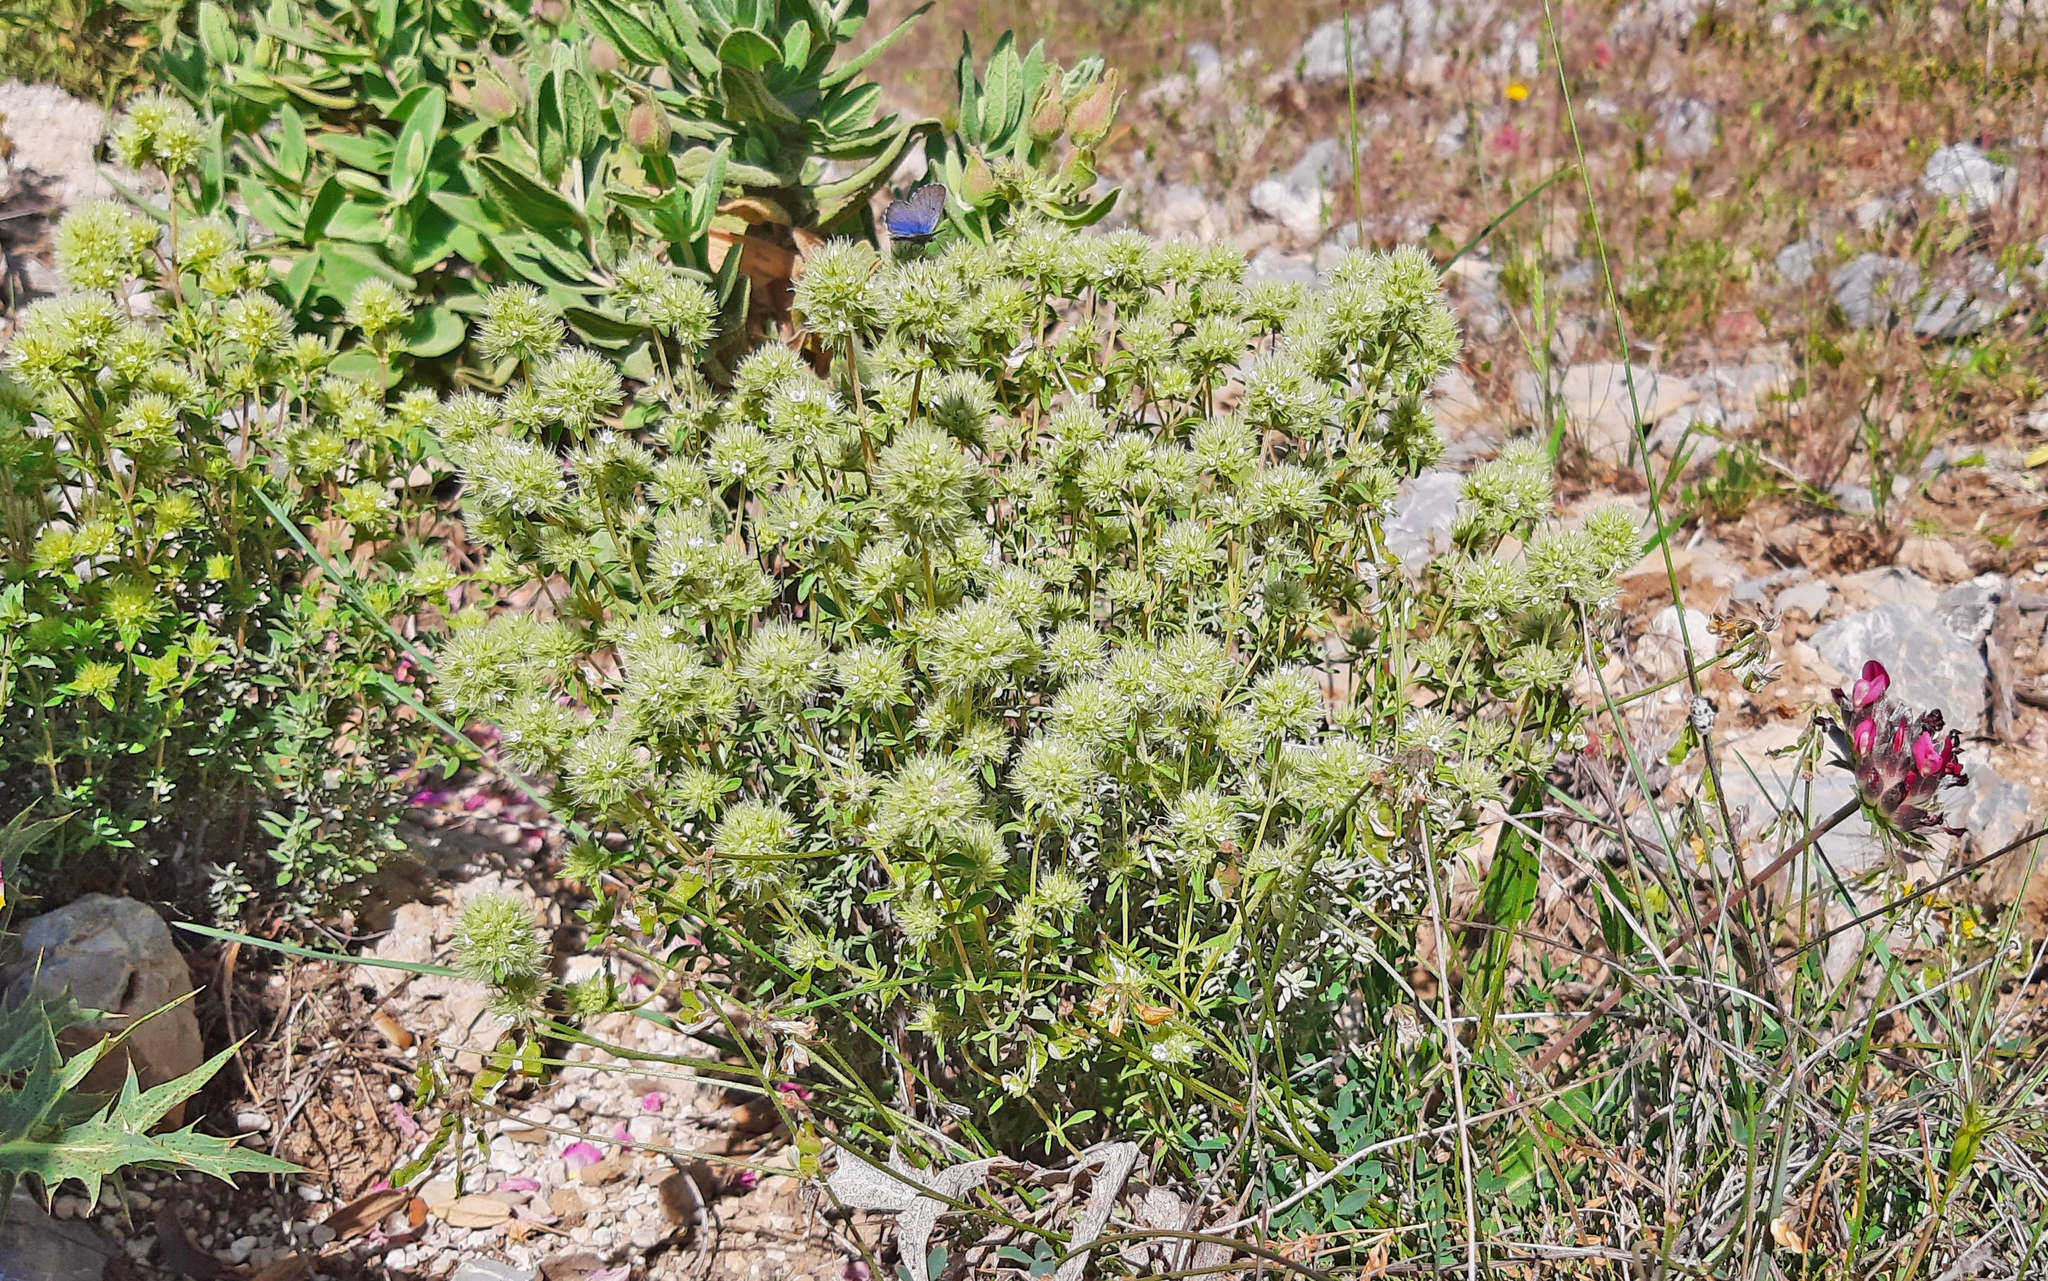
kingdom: Animalia
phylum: Arthropoda
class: Insecta
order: Lepidoptera
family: Lycaenidae
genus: Pseudophilotes
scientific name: Pseudophilotes baton
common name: Baton blue
